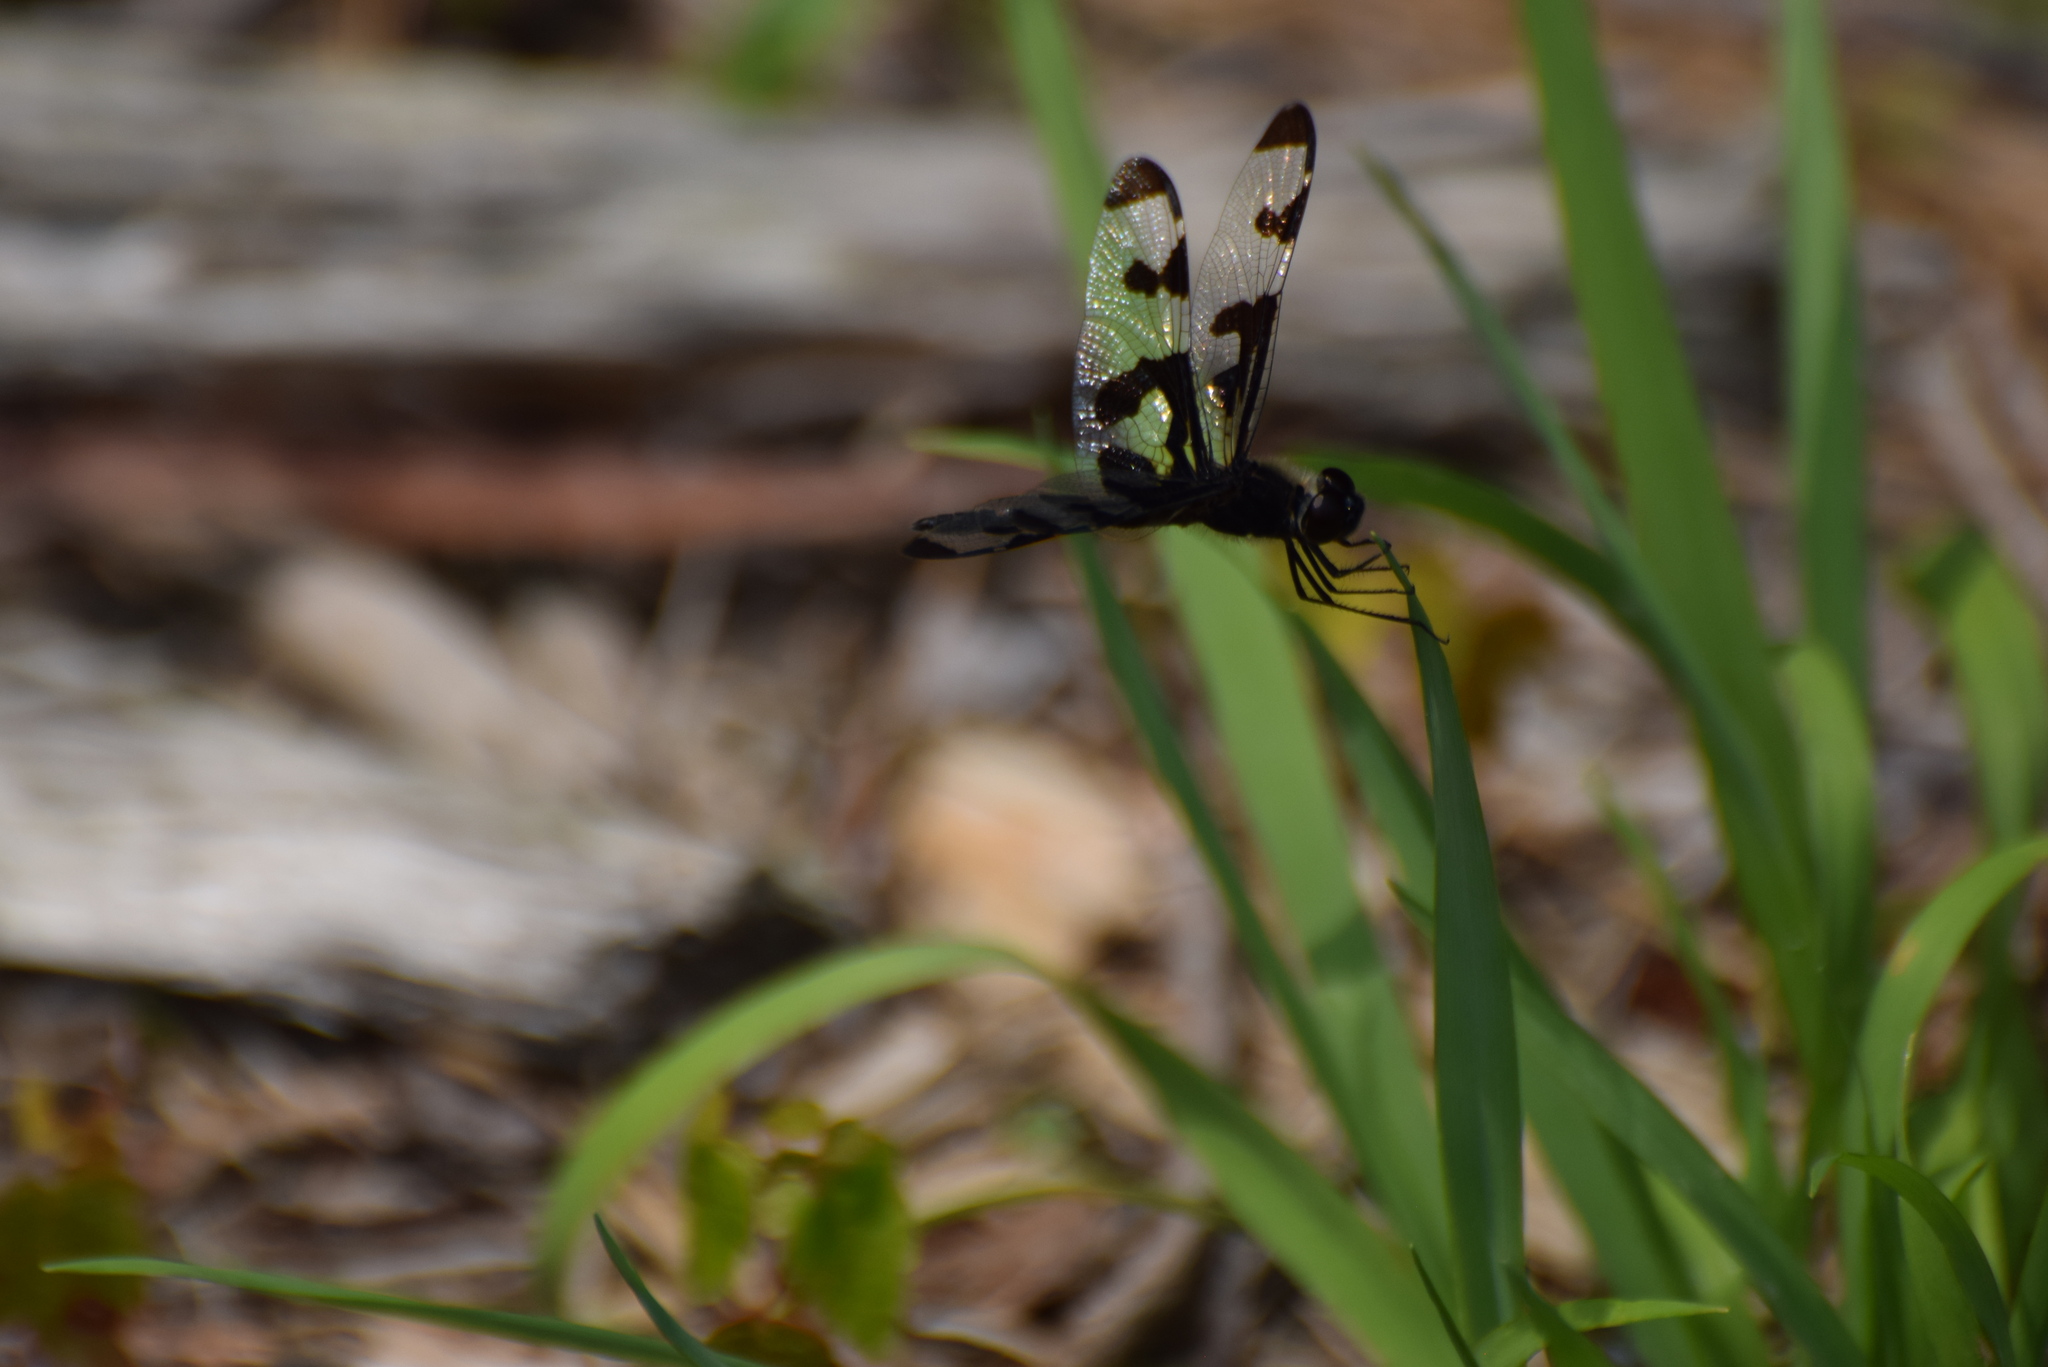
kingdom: Animalia
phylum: Arthropoda
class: Insecta
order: Odonata
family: Libellulidae
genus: Celithemis
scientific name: Celithemis fasciata
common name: Banded pennant
